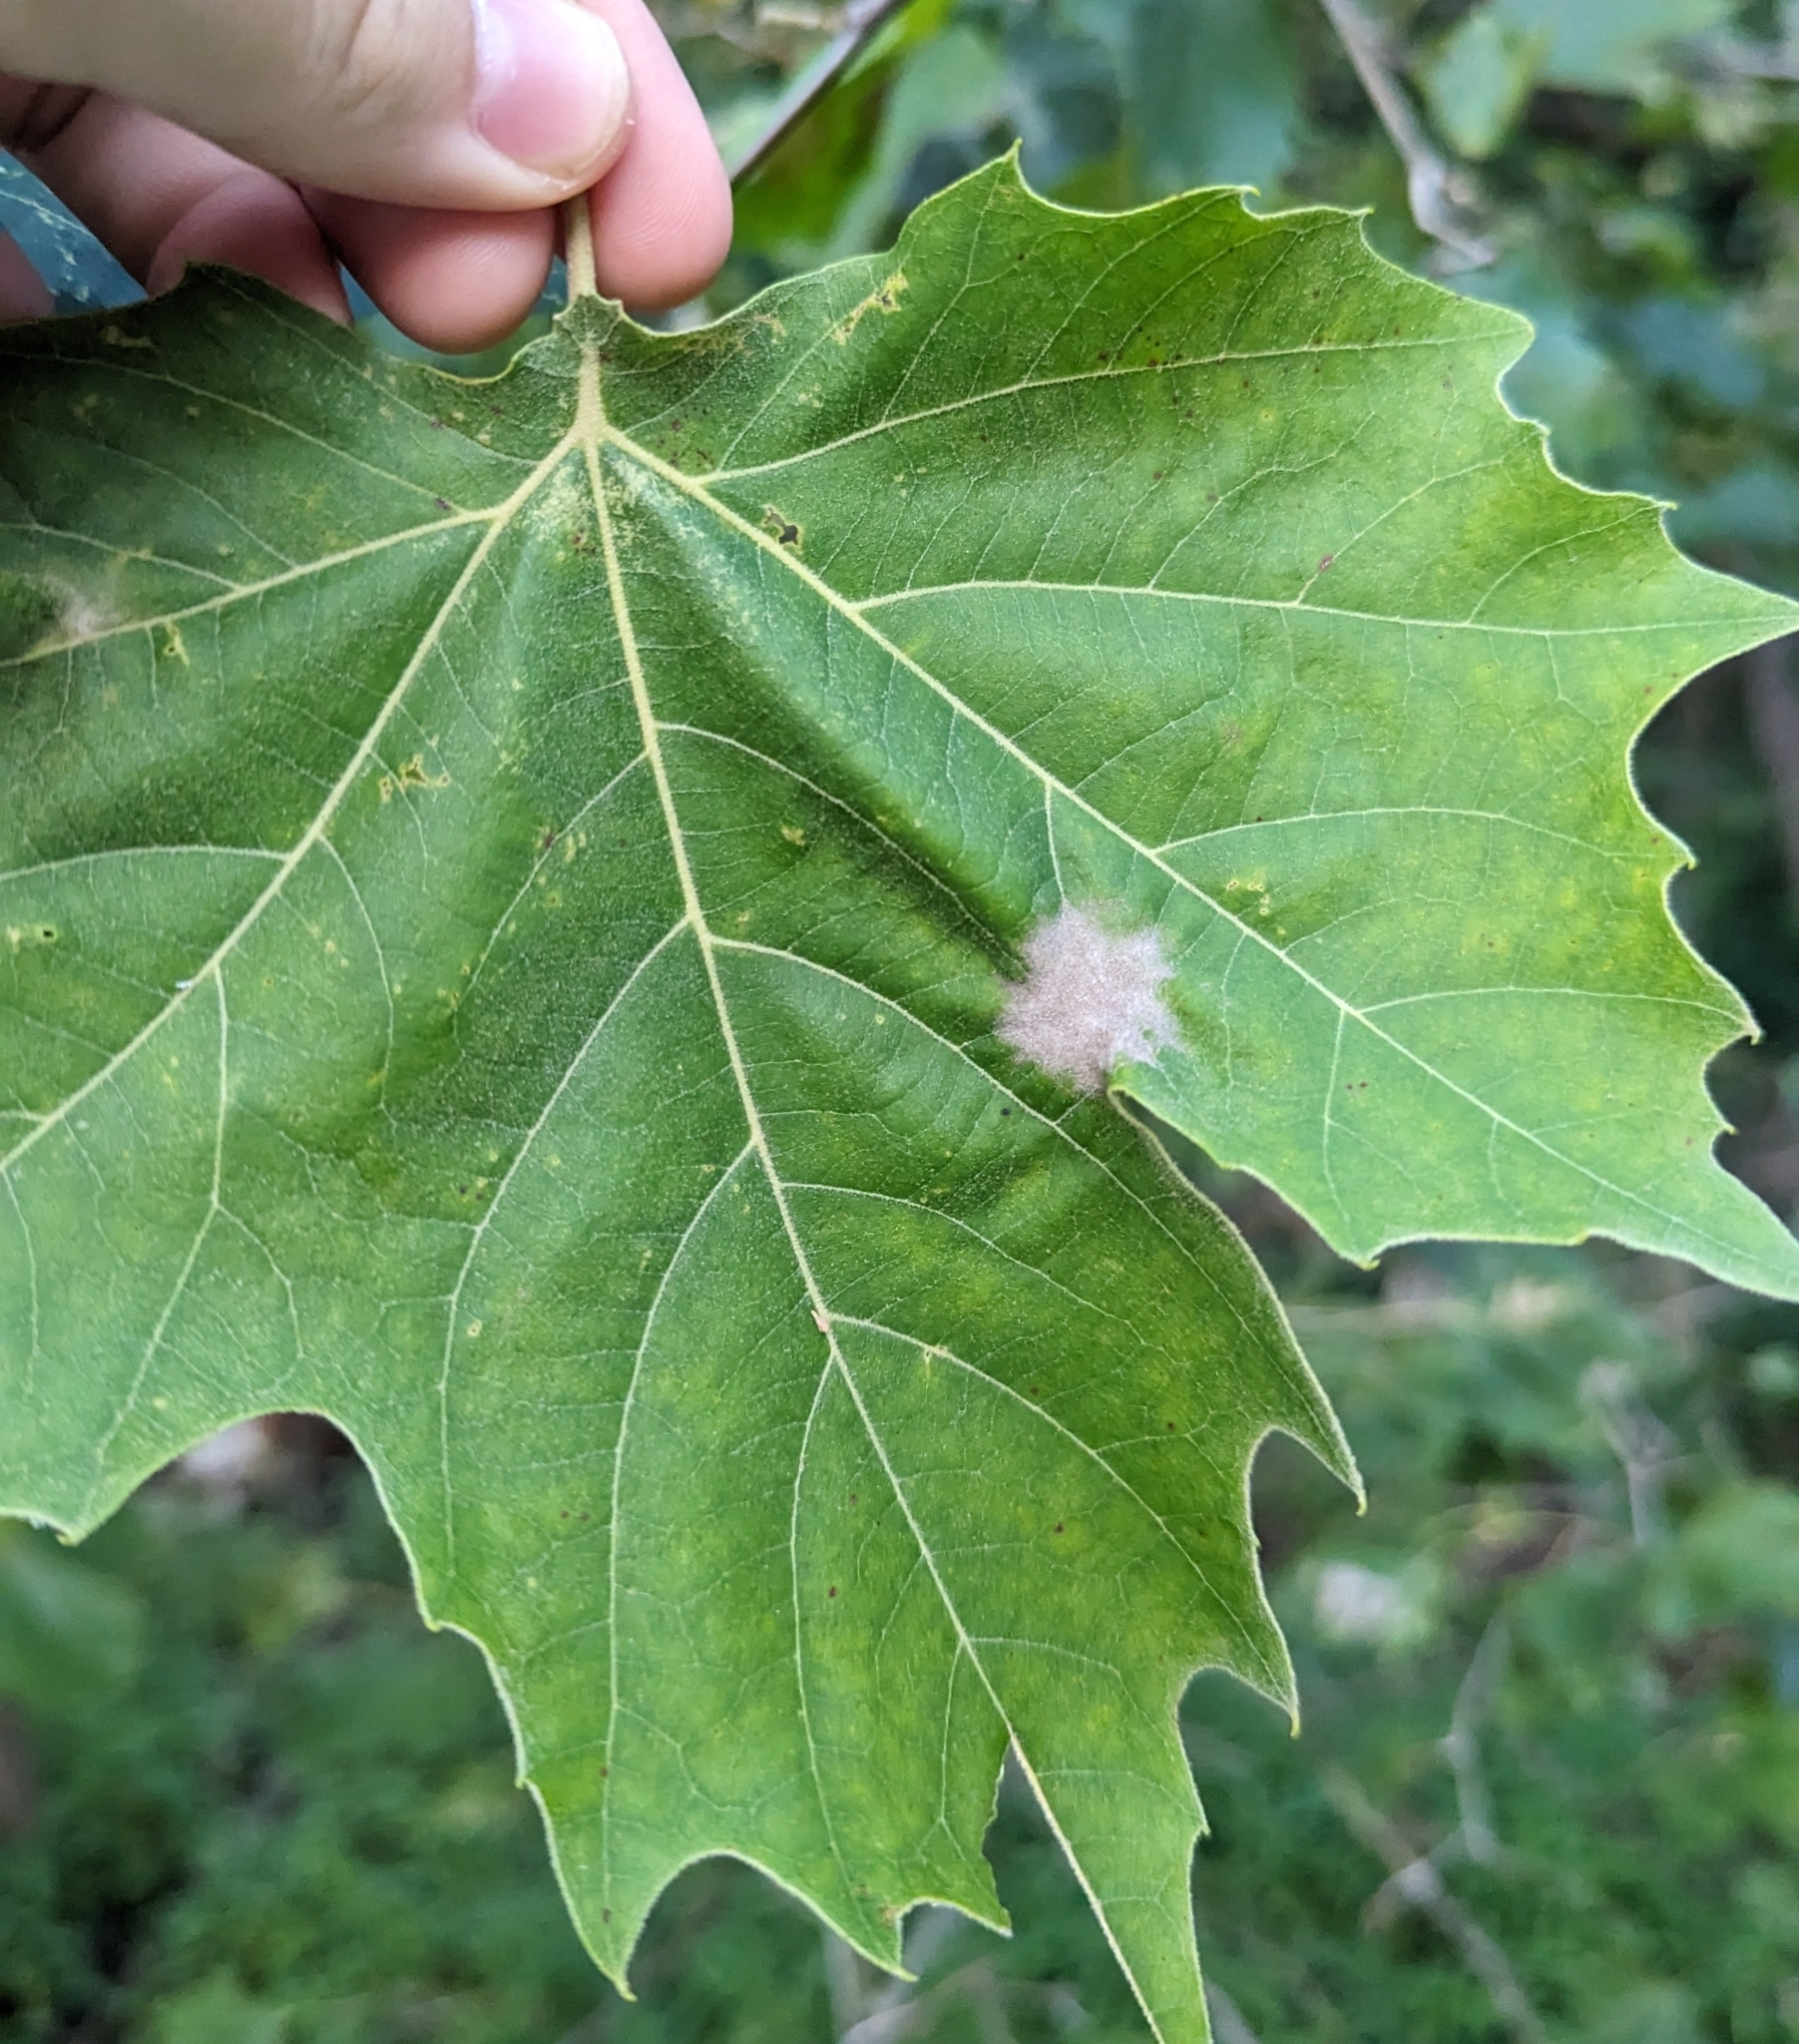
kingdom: Fungi
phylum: Ascomycota
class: Leotiomycetes
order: Helotiales
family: Erysiphaceae
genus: Erysiphe
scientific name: Erysiphe platani
